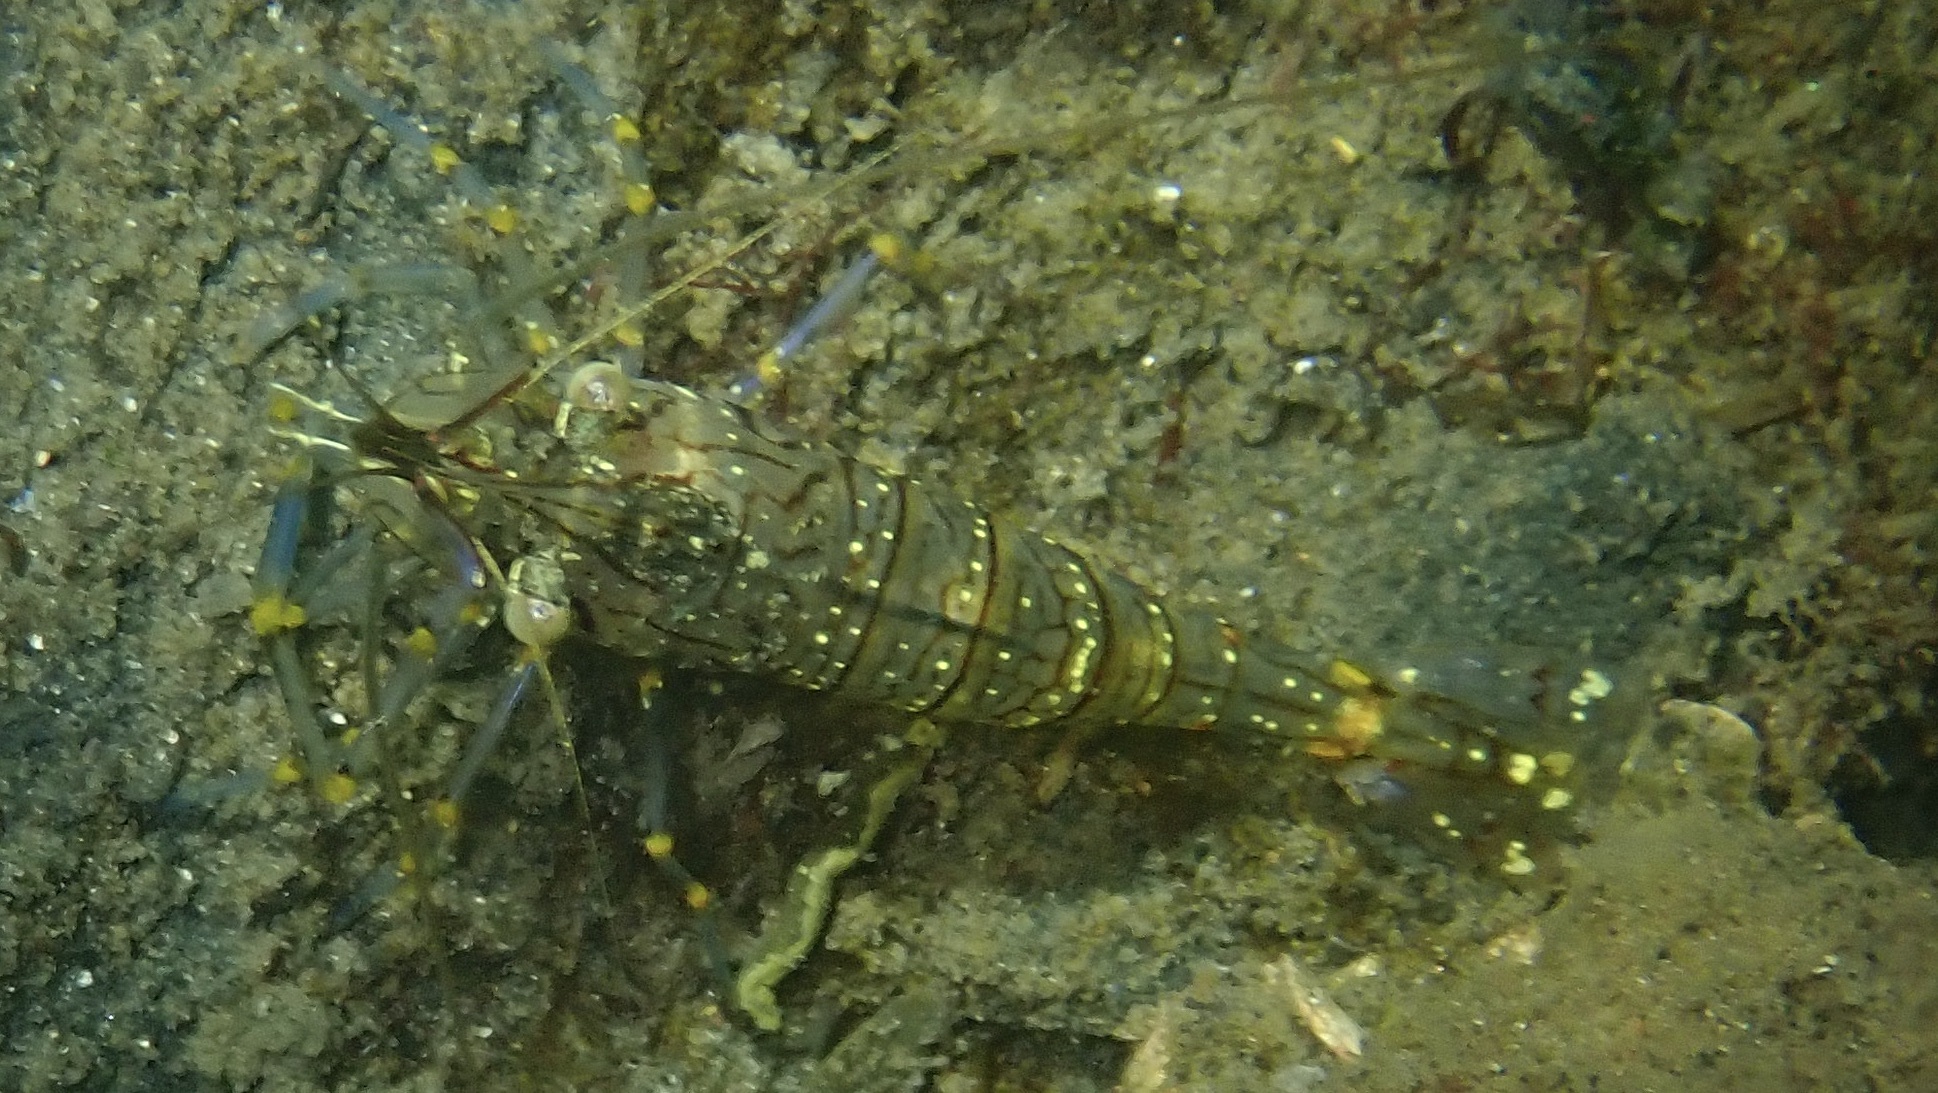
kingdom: Animalia
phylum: Arthropoda
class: Malacostraca
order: Decapoda
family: Palaemonidae
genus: Palaemon
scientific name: Palaemon elegans
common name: Grass prawm
